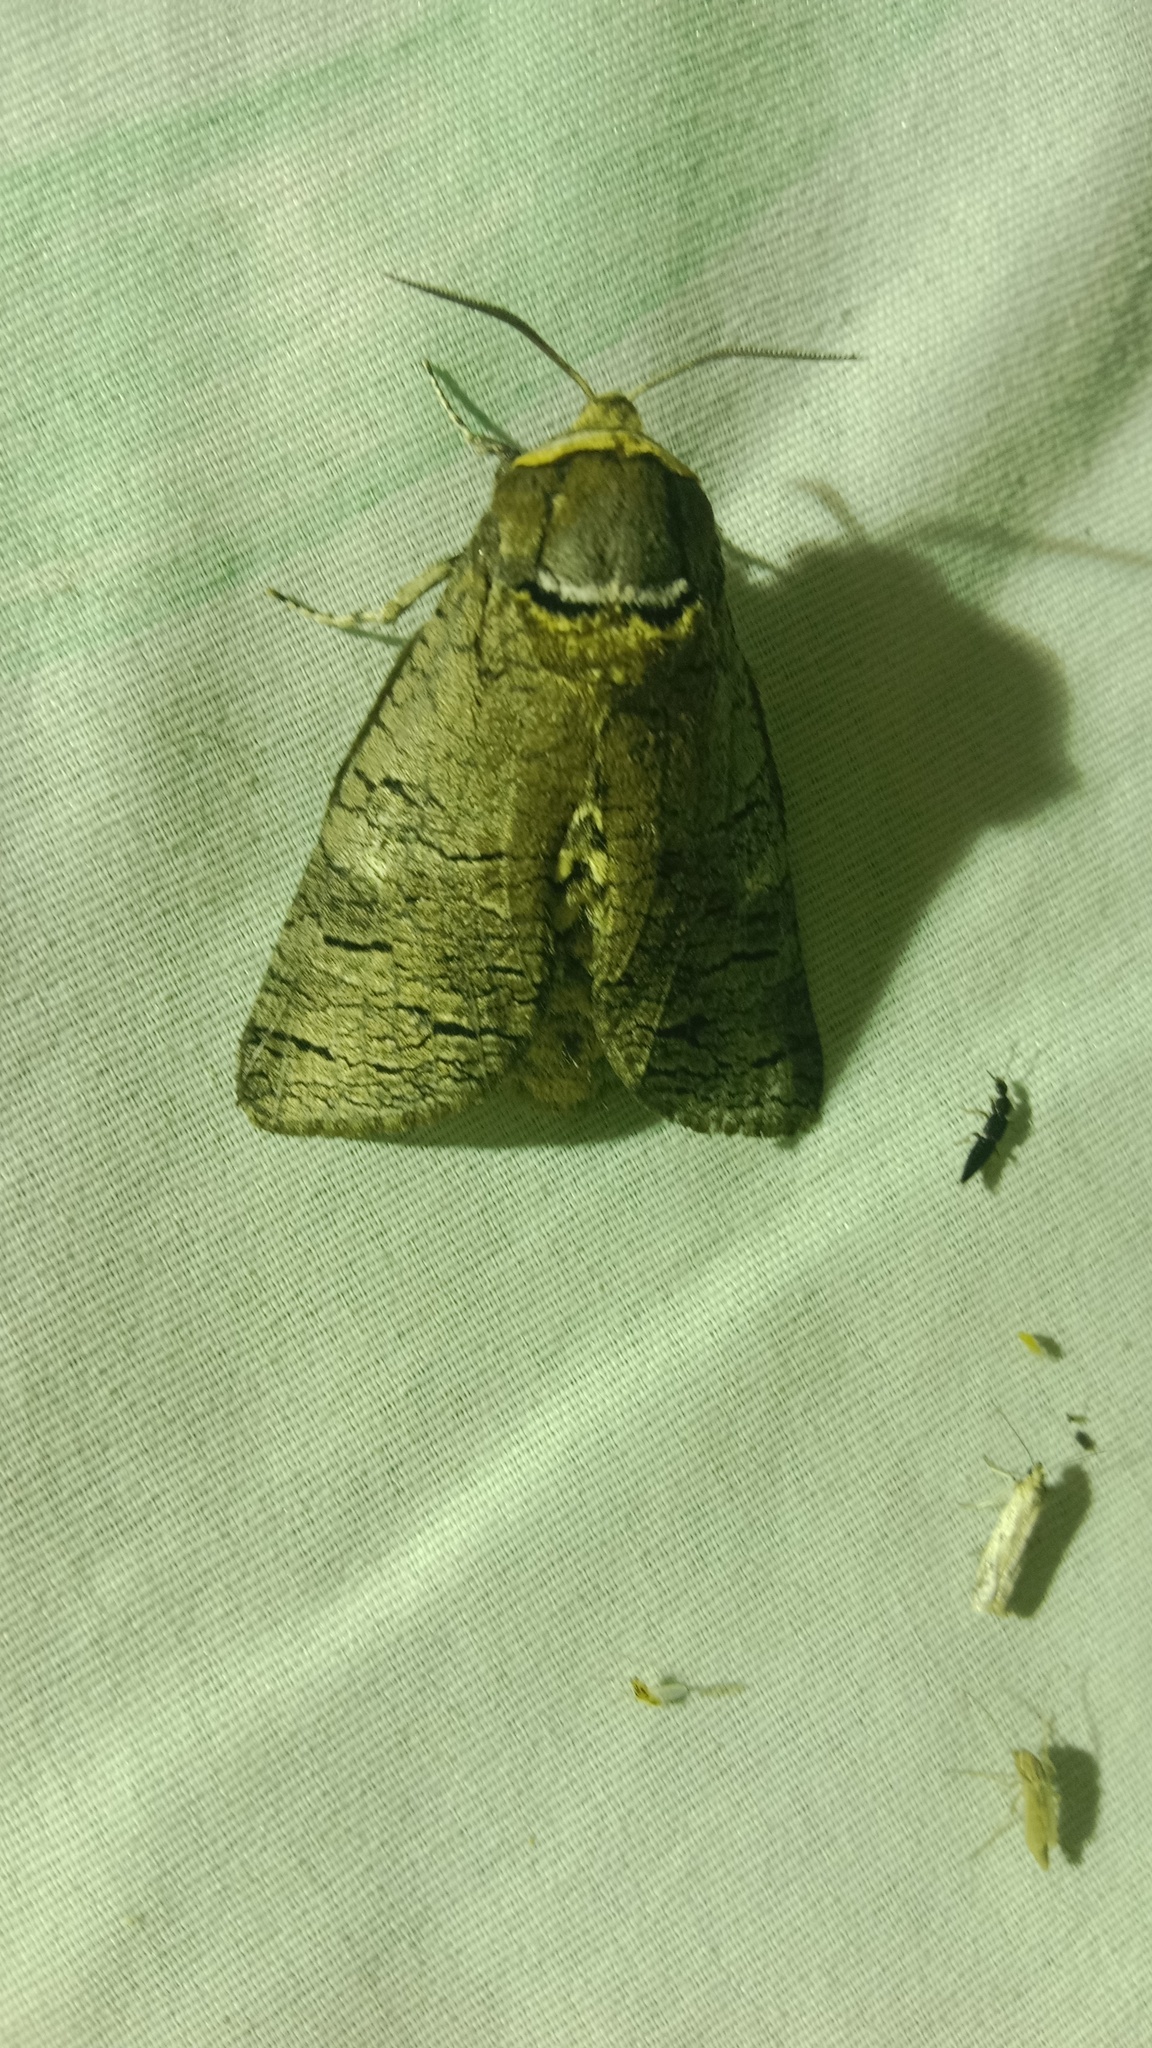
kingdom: Animalia
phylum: Arthropoda
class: Insecta
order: Lepidoptera
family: Cossidae
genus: Cossus
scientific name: Cossus cossus
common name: Goat moth
